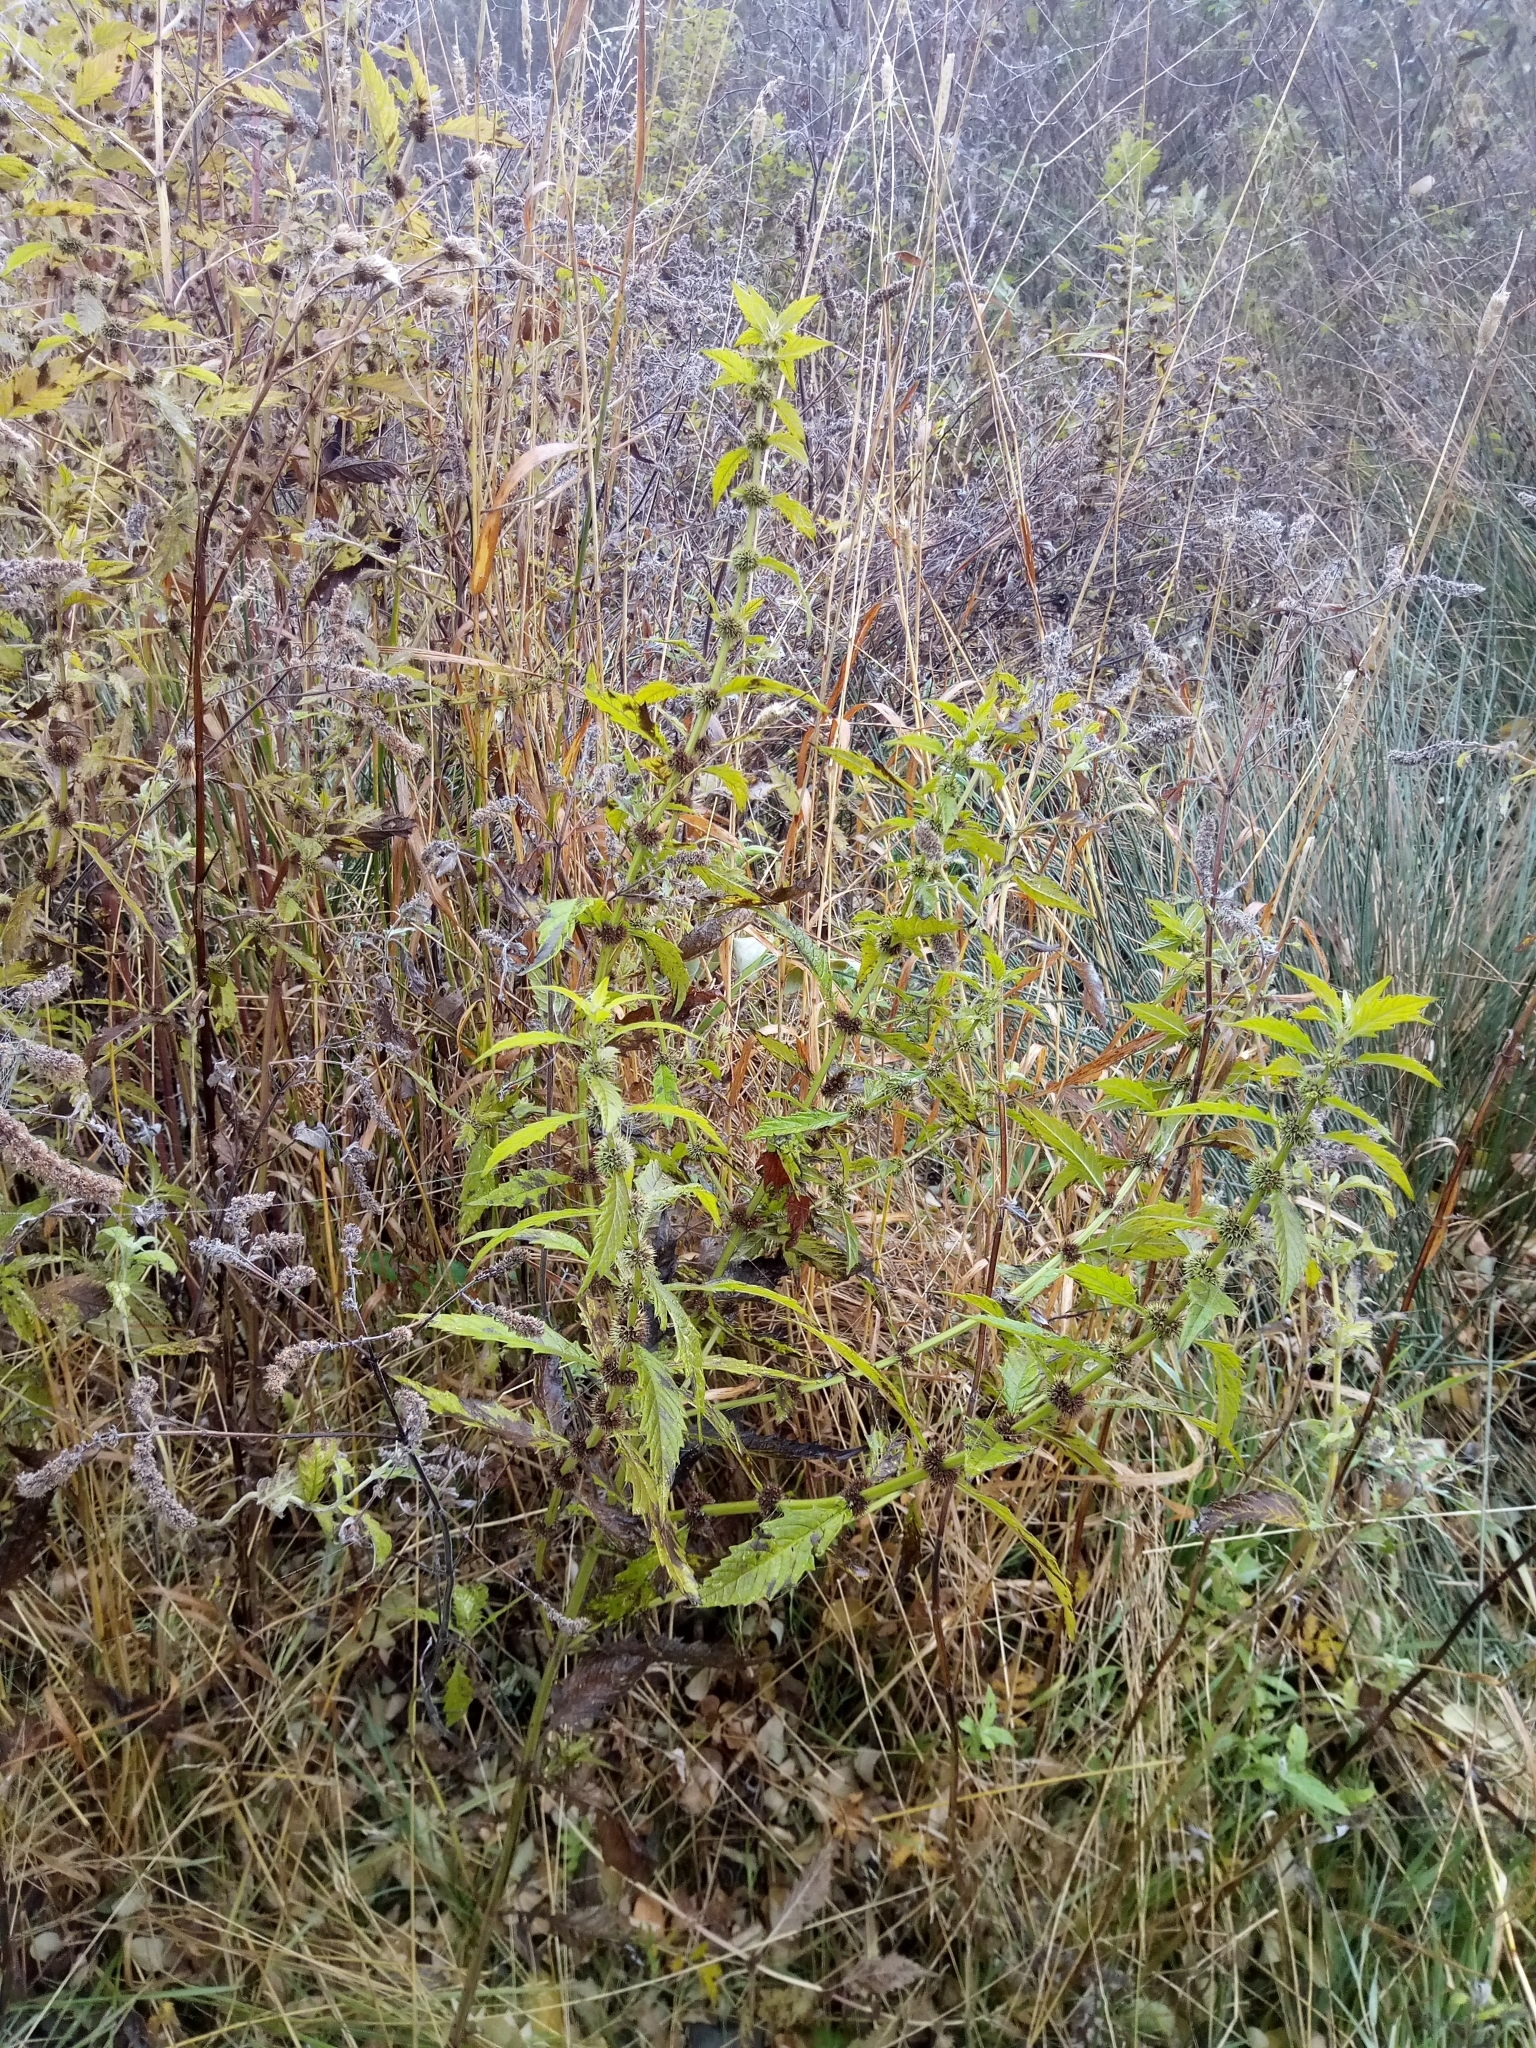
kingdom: Plantae
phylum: Tracheophyta
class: Magnoliopsida
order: Lamiales
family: Lamiaceae
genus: Lycopus
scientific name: Lycopus europaeus
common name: European bugleweed
